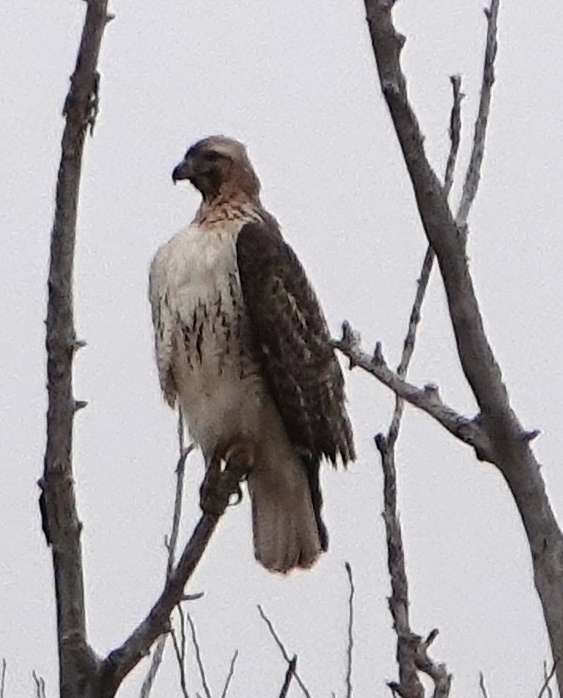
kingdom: Animalia
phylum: Chordata
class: Aves
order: Accipitriformes
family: Accipitridae
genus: Buteo
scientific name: Buteo jamaicensis
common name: Red-tailed hawk
